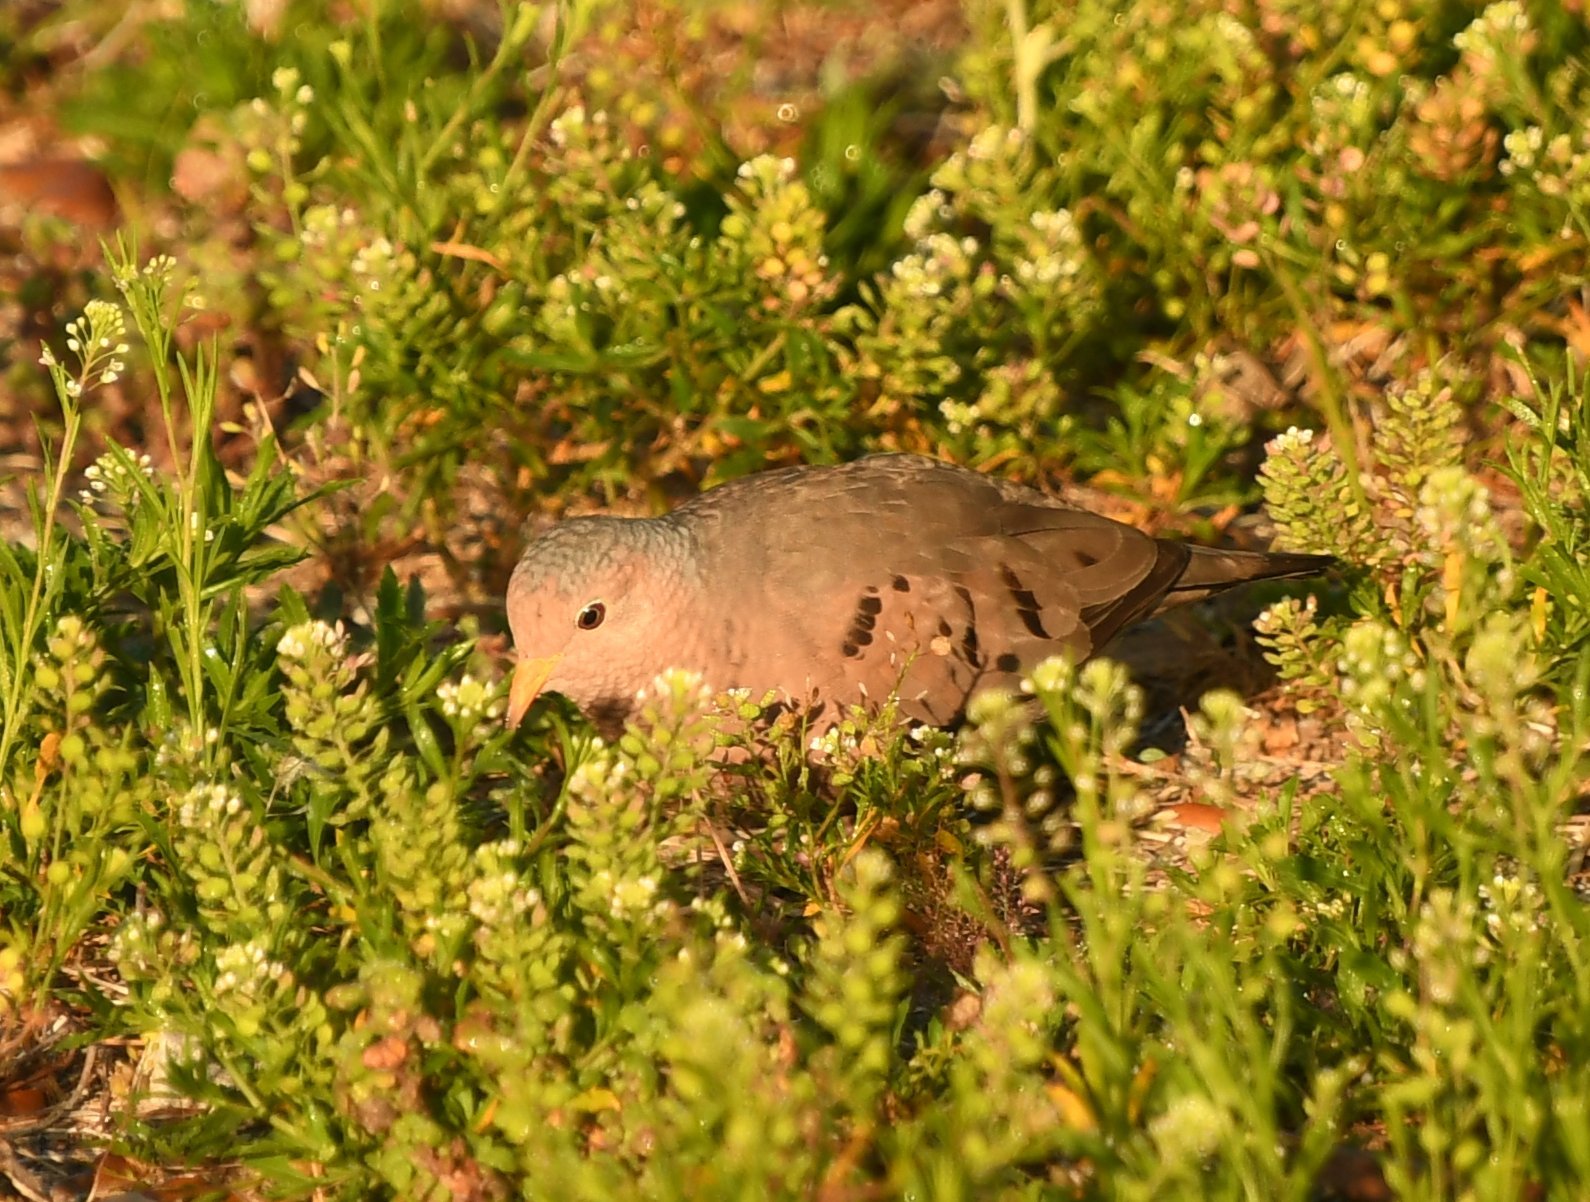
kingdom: Animalia
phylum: Chordata
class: Aves
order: Columbiformes
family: Columbidae
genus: Columbina
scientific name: Columbina passerina
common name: Common ground-dove
